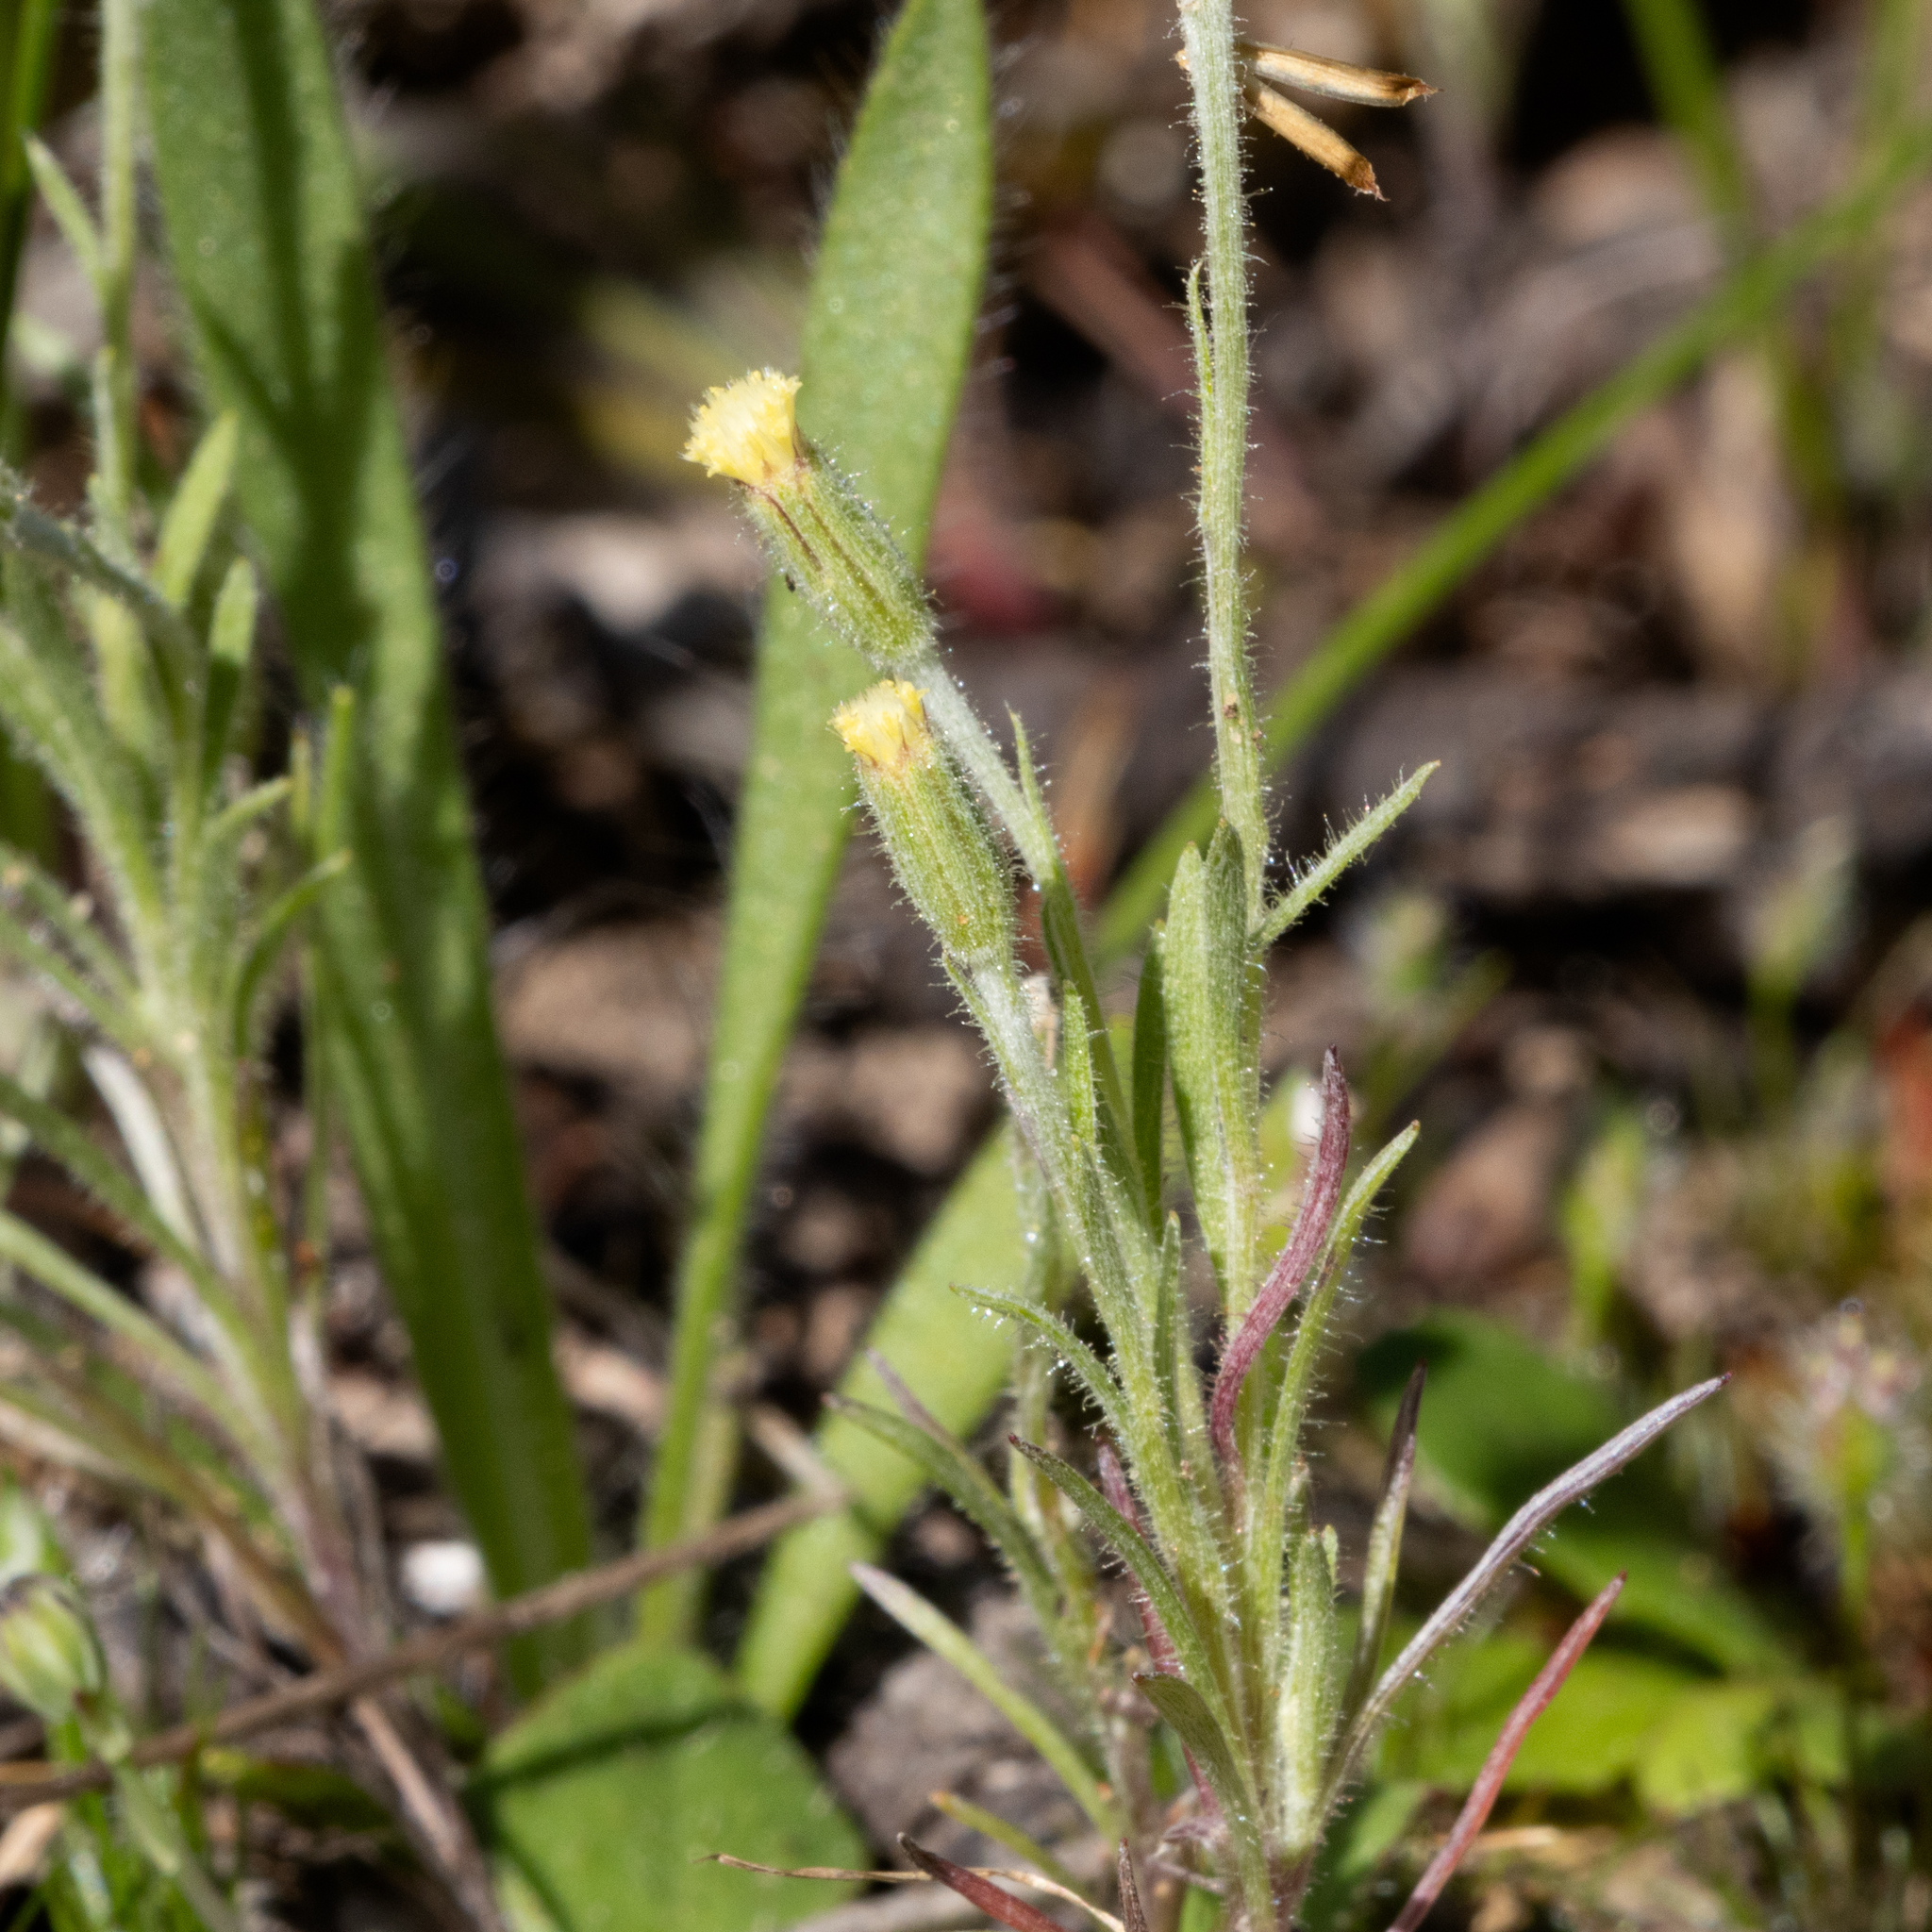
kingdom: Plantae
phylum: Tracheophyta
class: Magnoliopsida
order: Asterales
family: Asteraceae
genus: Millotia
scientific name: Millotia tenuifolia
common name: Soft millotia
